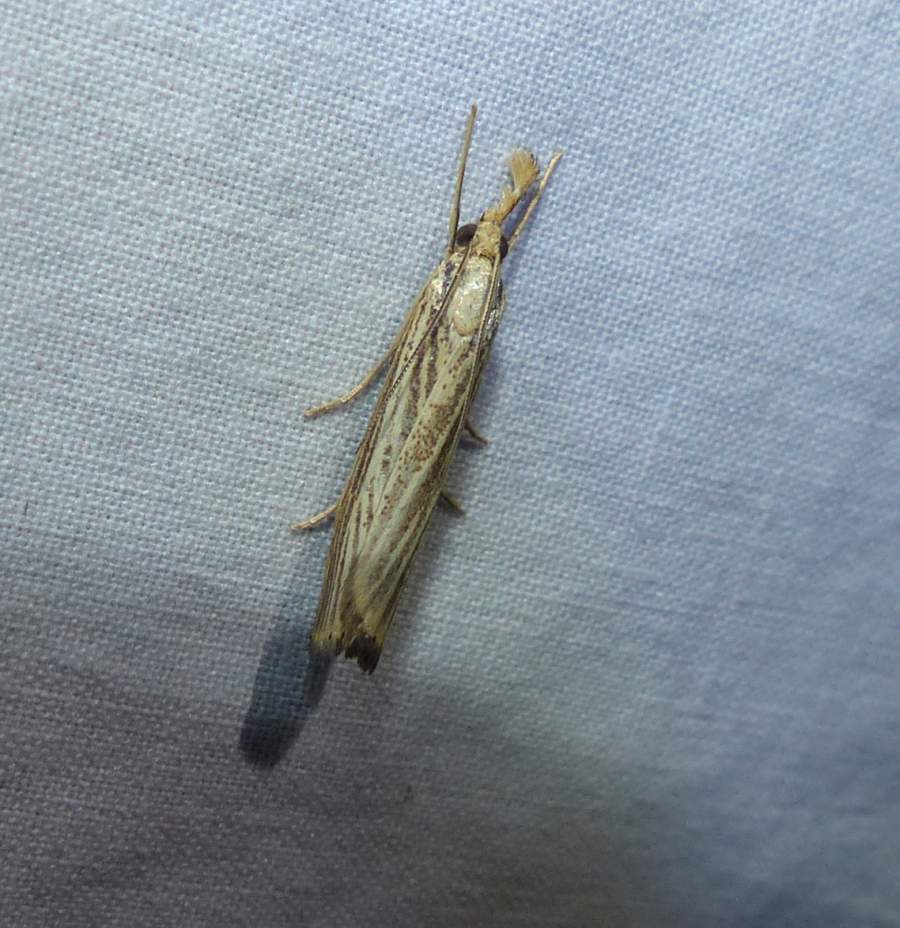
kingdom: Animalia
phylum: Arthropoda
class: Insecta
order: Lepidoptera
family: Crambidae
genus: Agriphila
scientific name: Agriphila vulgivagellus
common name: Vagabond crambus moth
